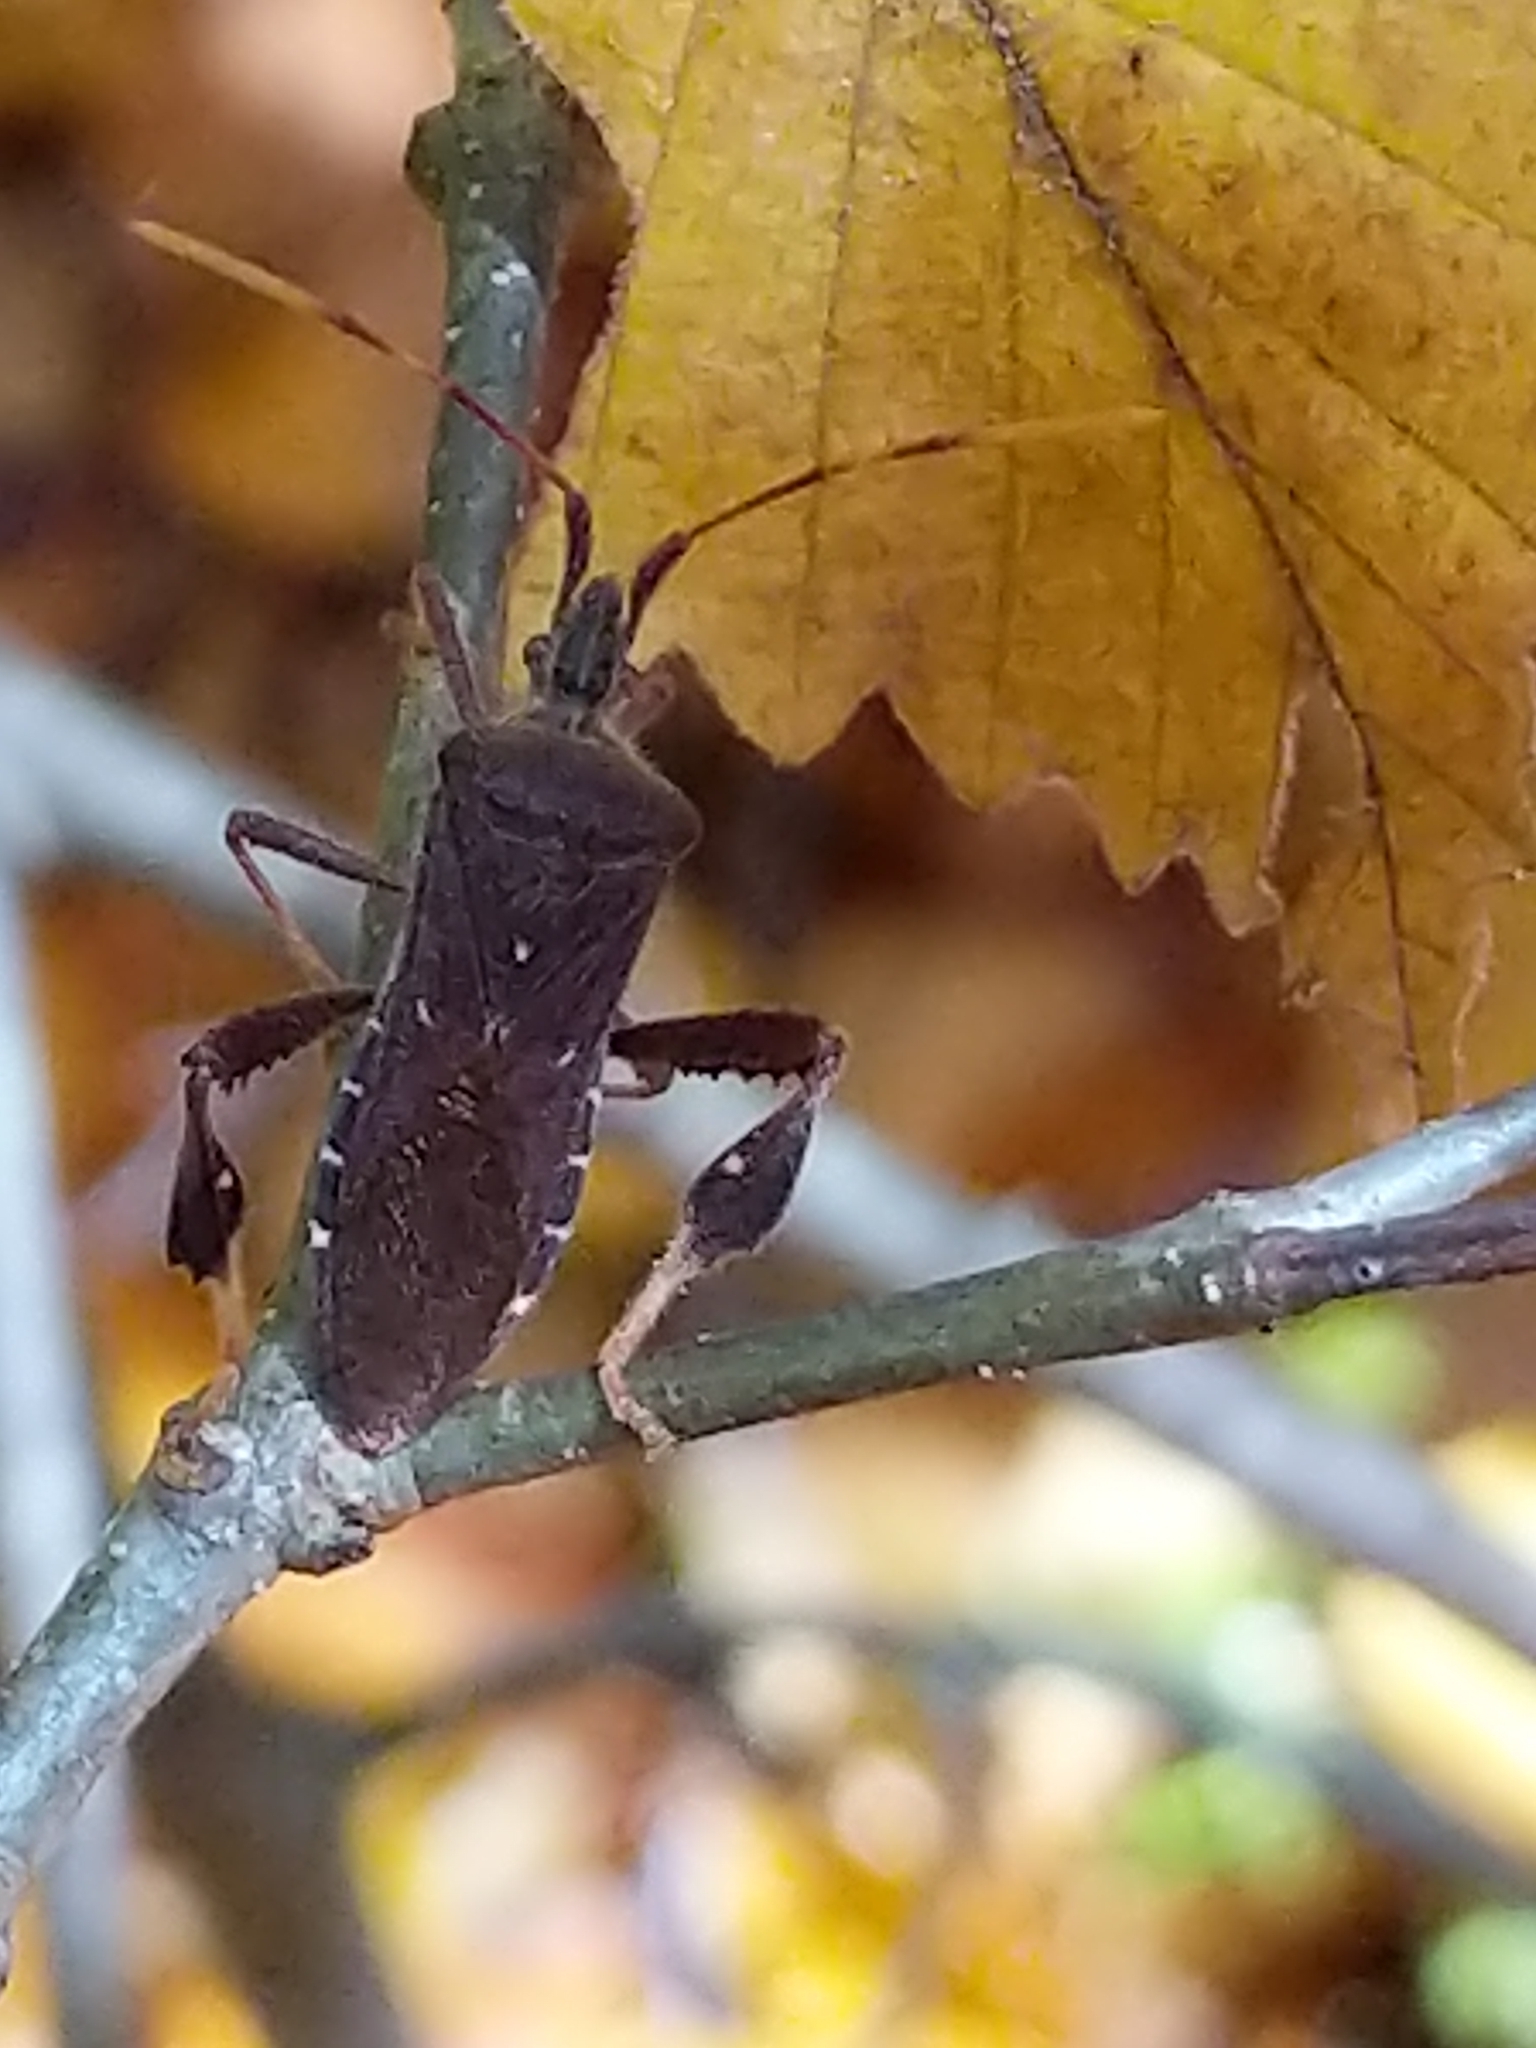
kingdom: Animalia
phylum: Arthropoda
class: Insecta
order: Hemiptera
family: Coreidae
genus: Leptoglossus
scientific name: Leptoglossus oppositus
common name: Northern leaf-footed bug
